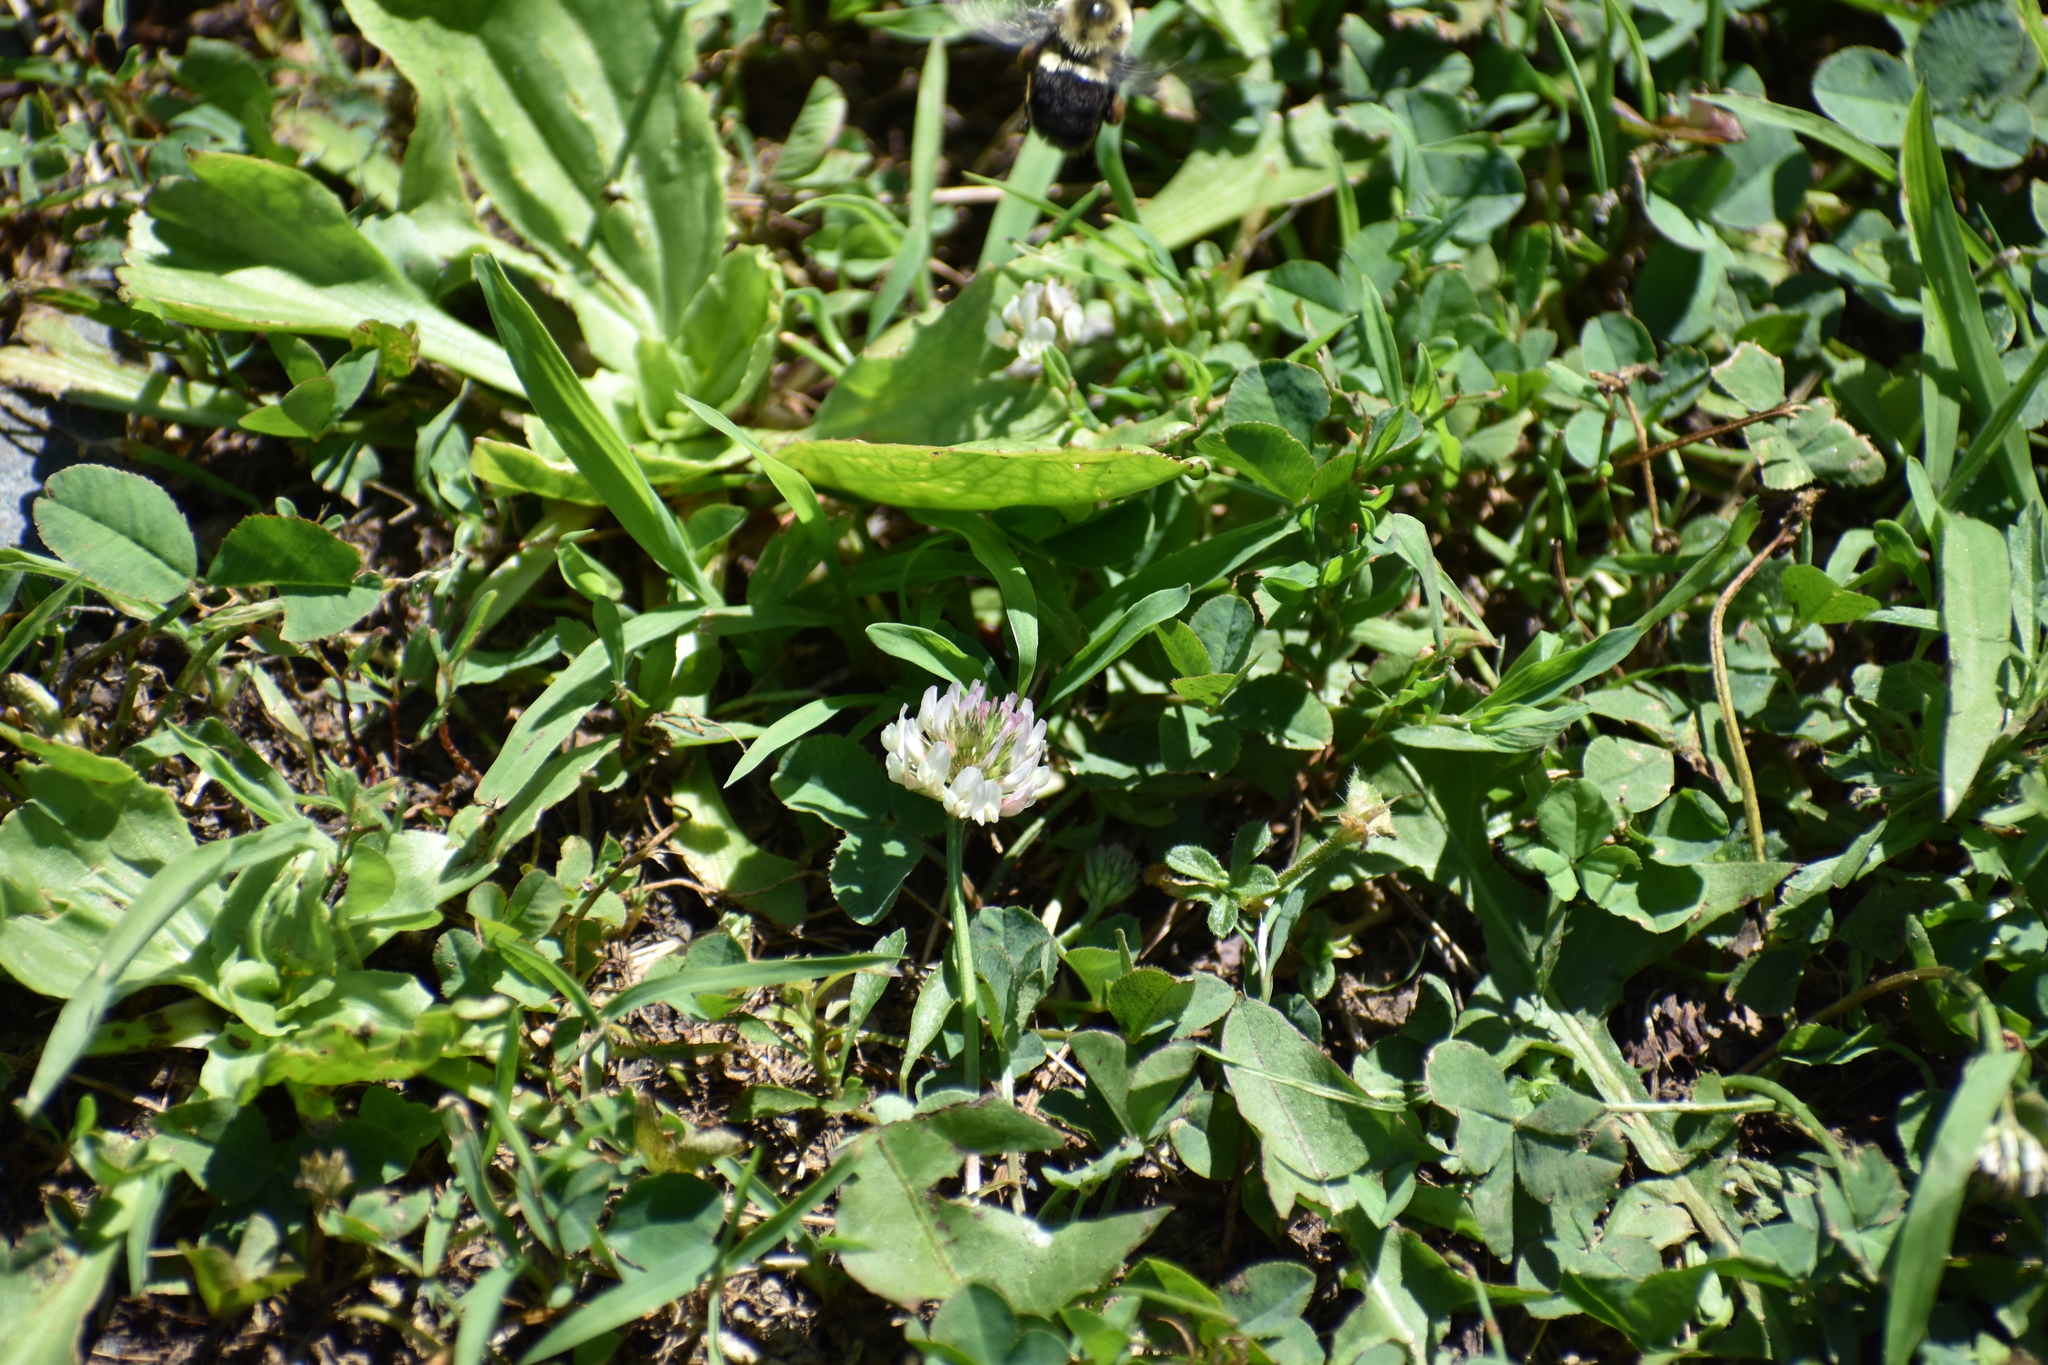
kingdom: Animalia
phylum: Arthropoda
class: Insecta
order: Hymenoptera
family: Apidae
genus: Bombus
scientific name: Bombus impatiens
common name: Common eastern bumble bee
